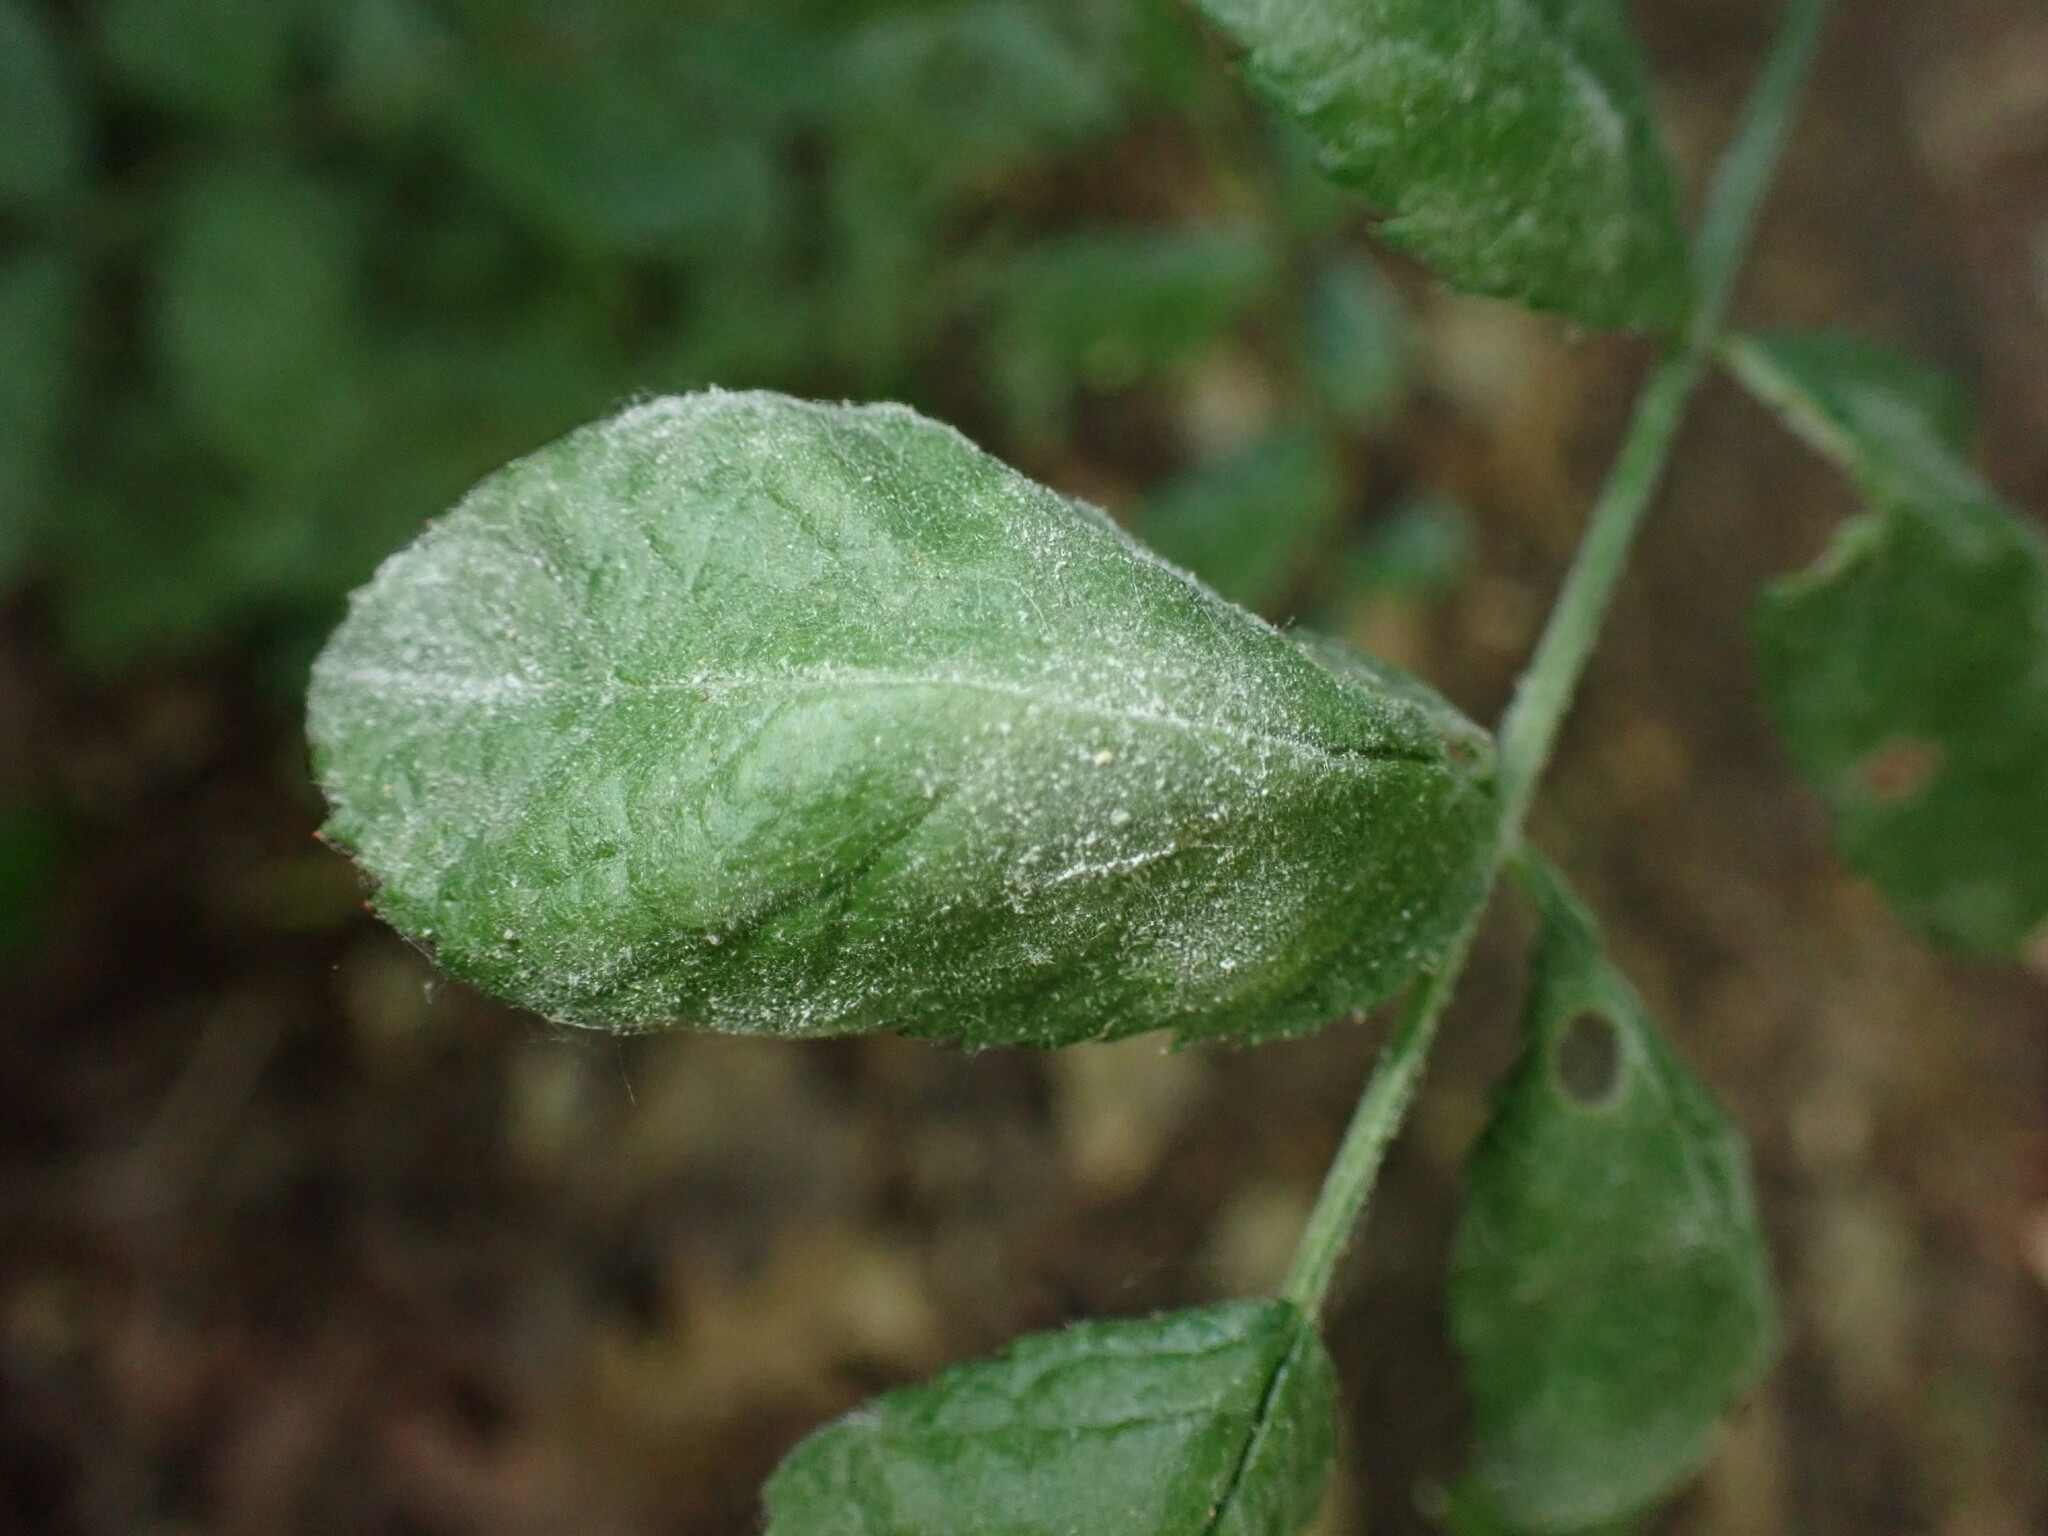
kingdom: Fungi
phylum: Ascomycota
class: Leotiomycetes
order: Helotiales
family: Erysiphaceae
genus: Podosphaera
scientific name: Podosphaera pannosa
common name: Rose mildew
